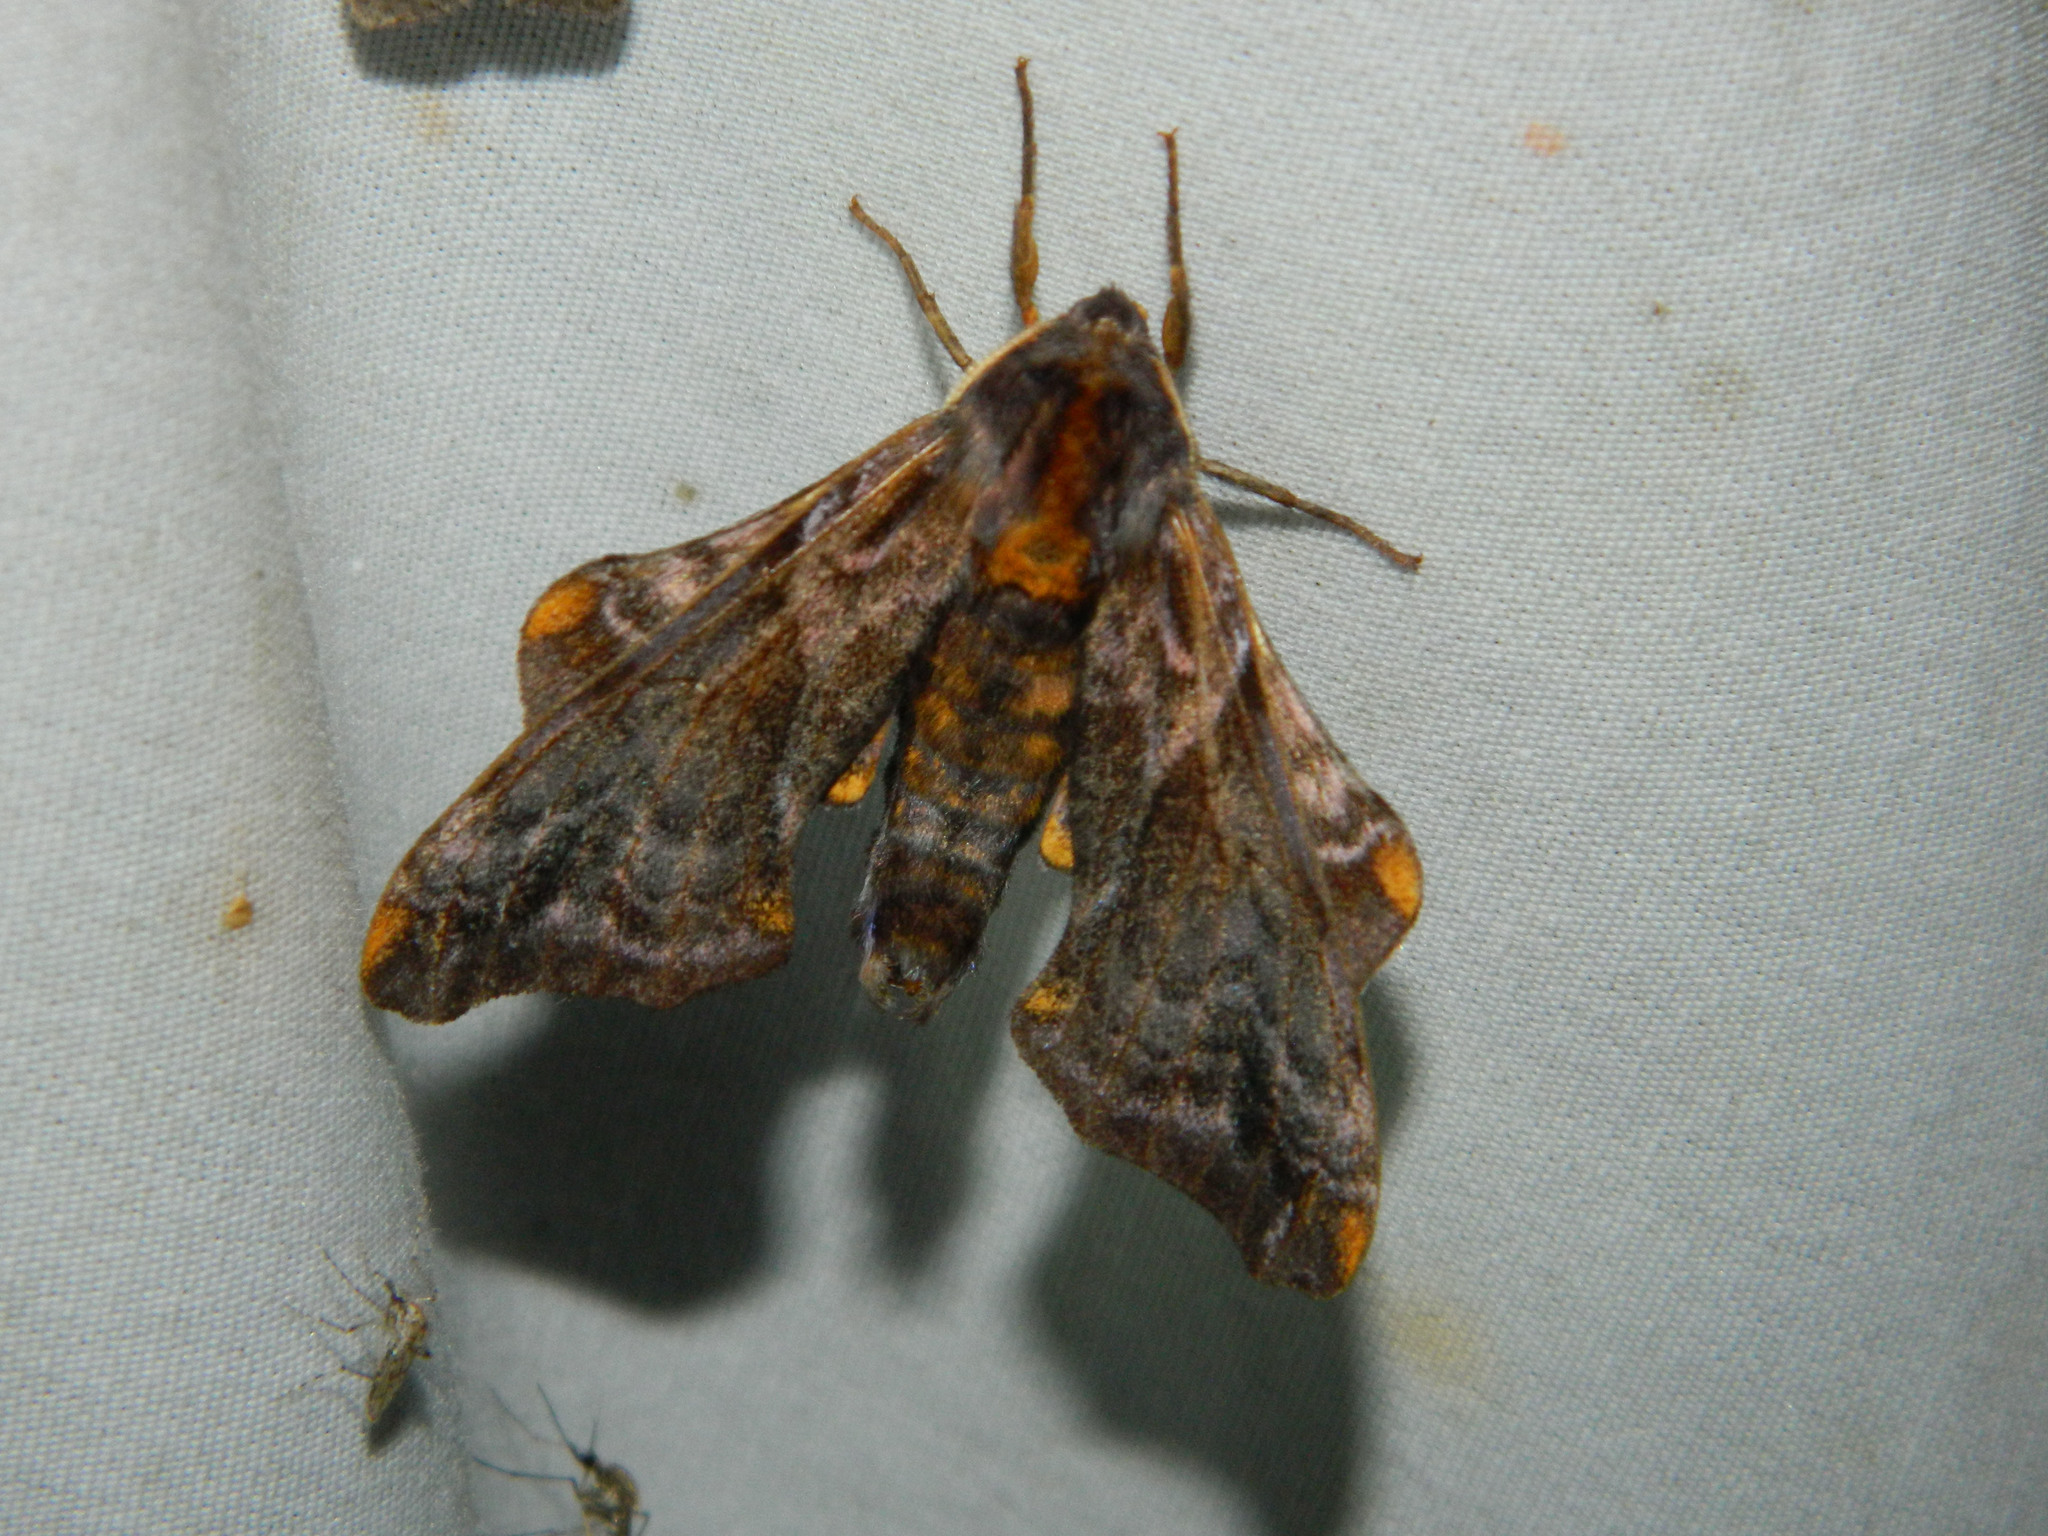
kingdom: Animalia
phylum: Arthropoda
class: Insecta
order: Lepidoptera
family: Sphingidae
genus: Paonias
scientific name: Paonias myops
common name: Small-eyed sphinx
